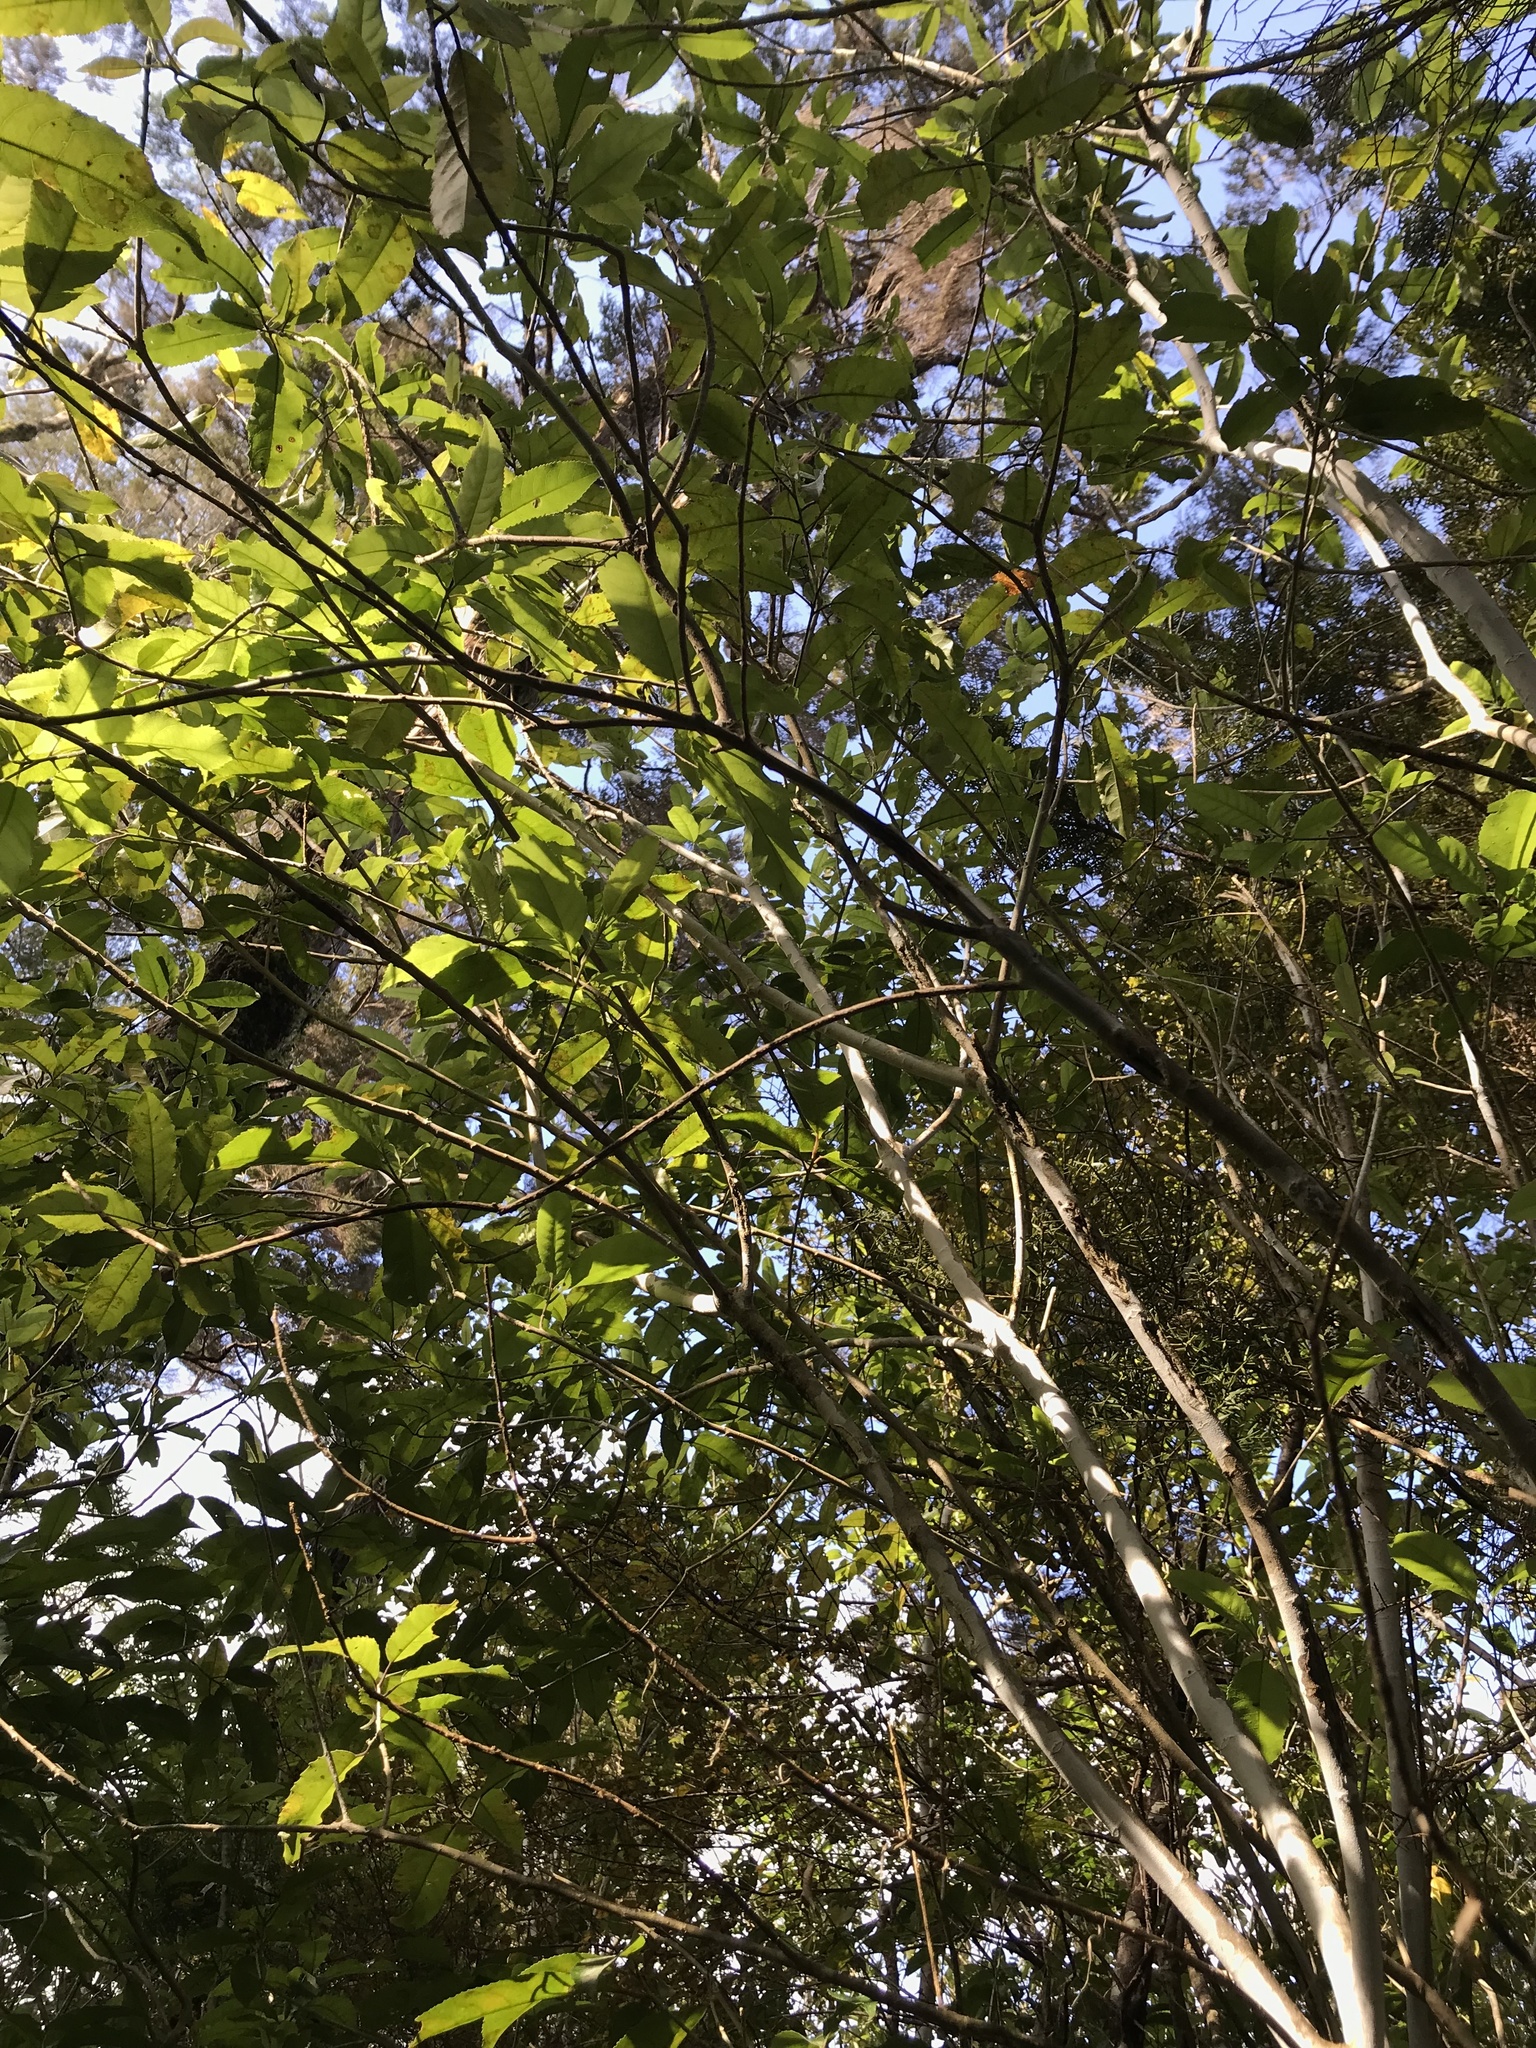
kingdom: Plantae
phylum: Tracheophyta
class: Magnoliopsida
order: Malpighiales
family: Violaceae
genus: Melicytus
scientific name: Melicytus ramiflorus
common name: Mahoe
